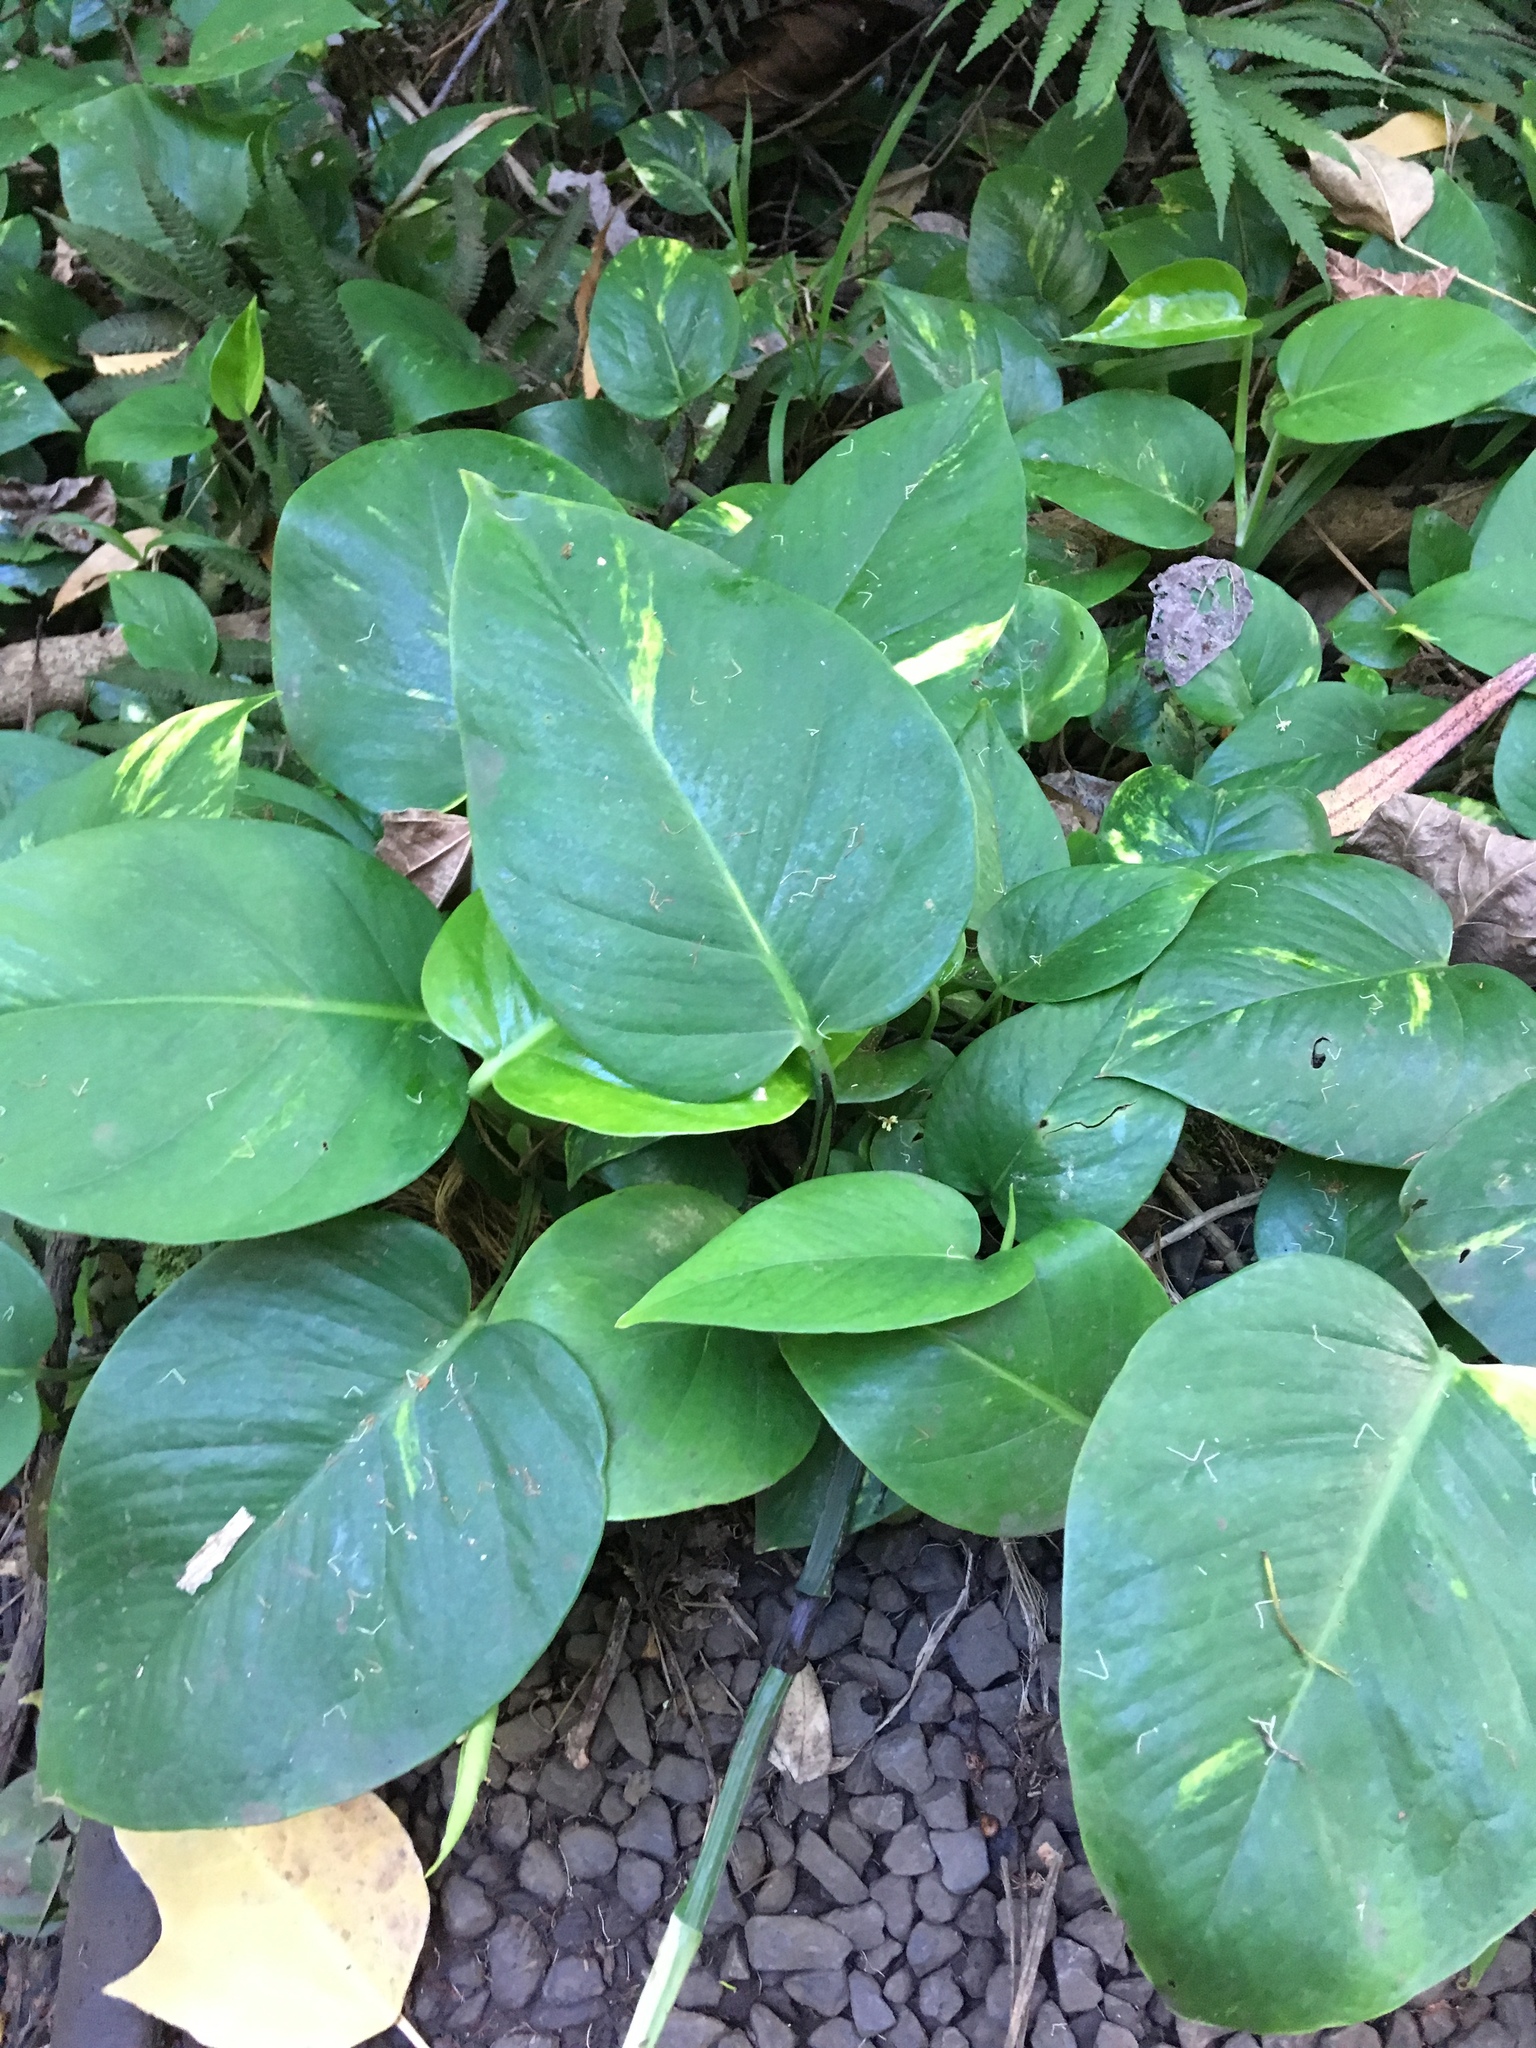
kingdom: Plantae
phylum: Tracheophyta
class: Liliopsida
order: Alismatales
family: Araceae
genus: Epipremnum
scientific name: Epipremnum aureum
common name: Golden hunter's-robe
